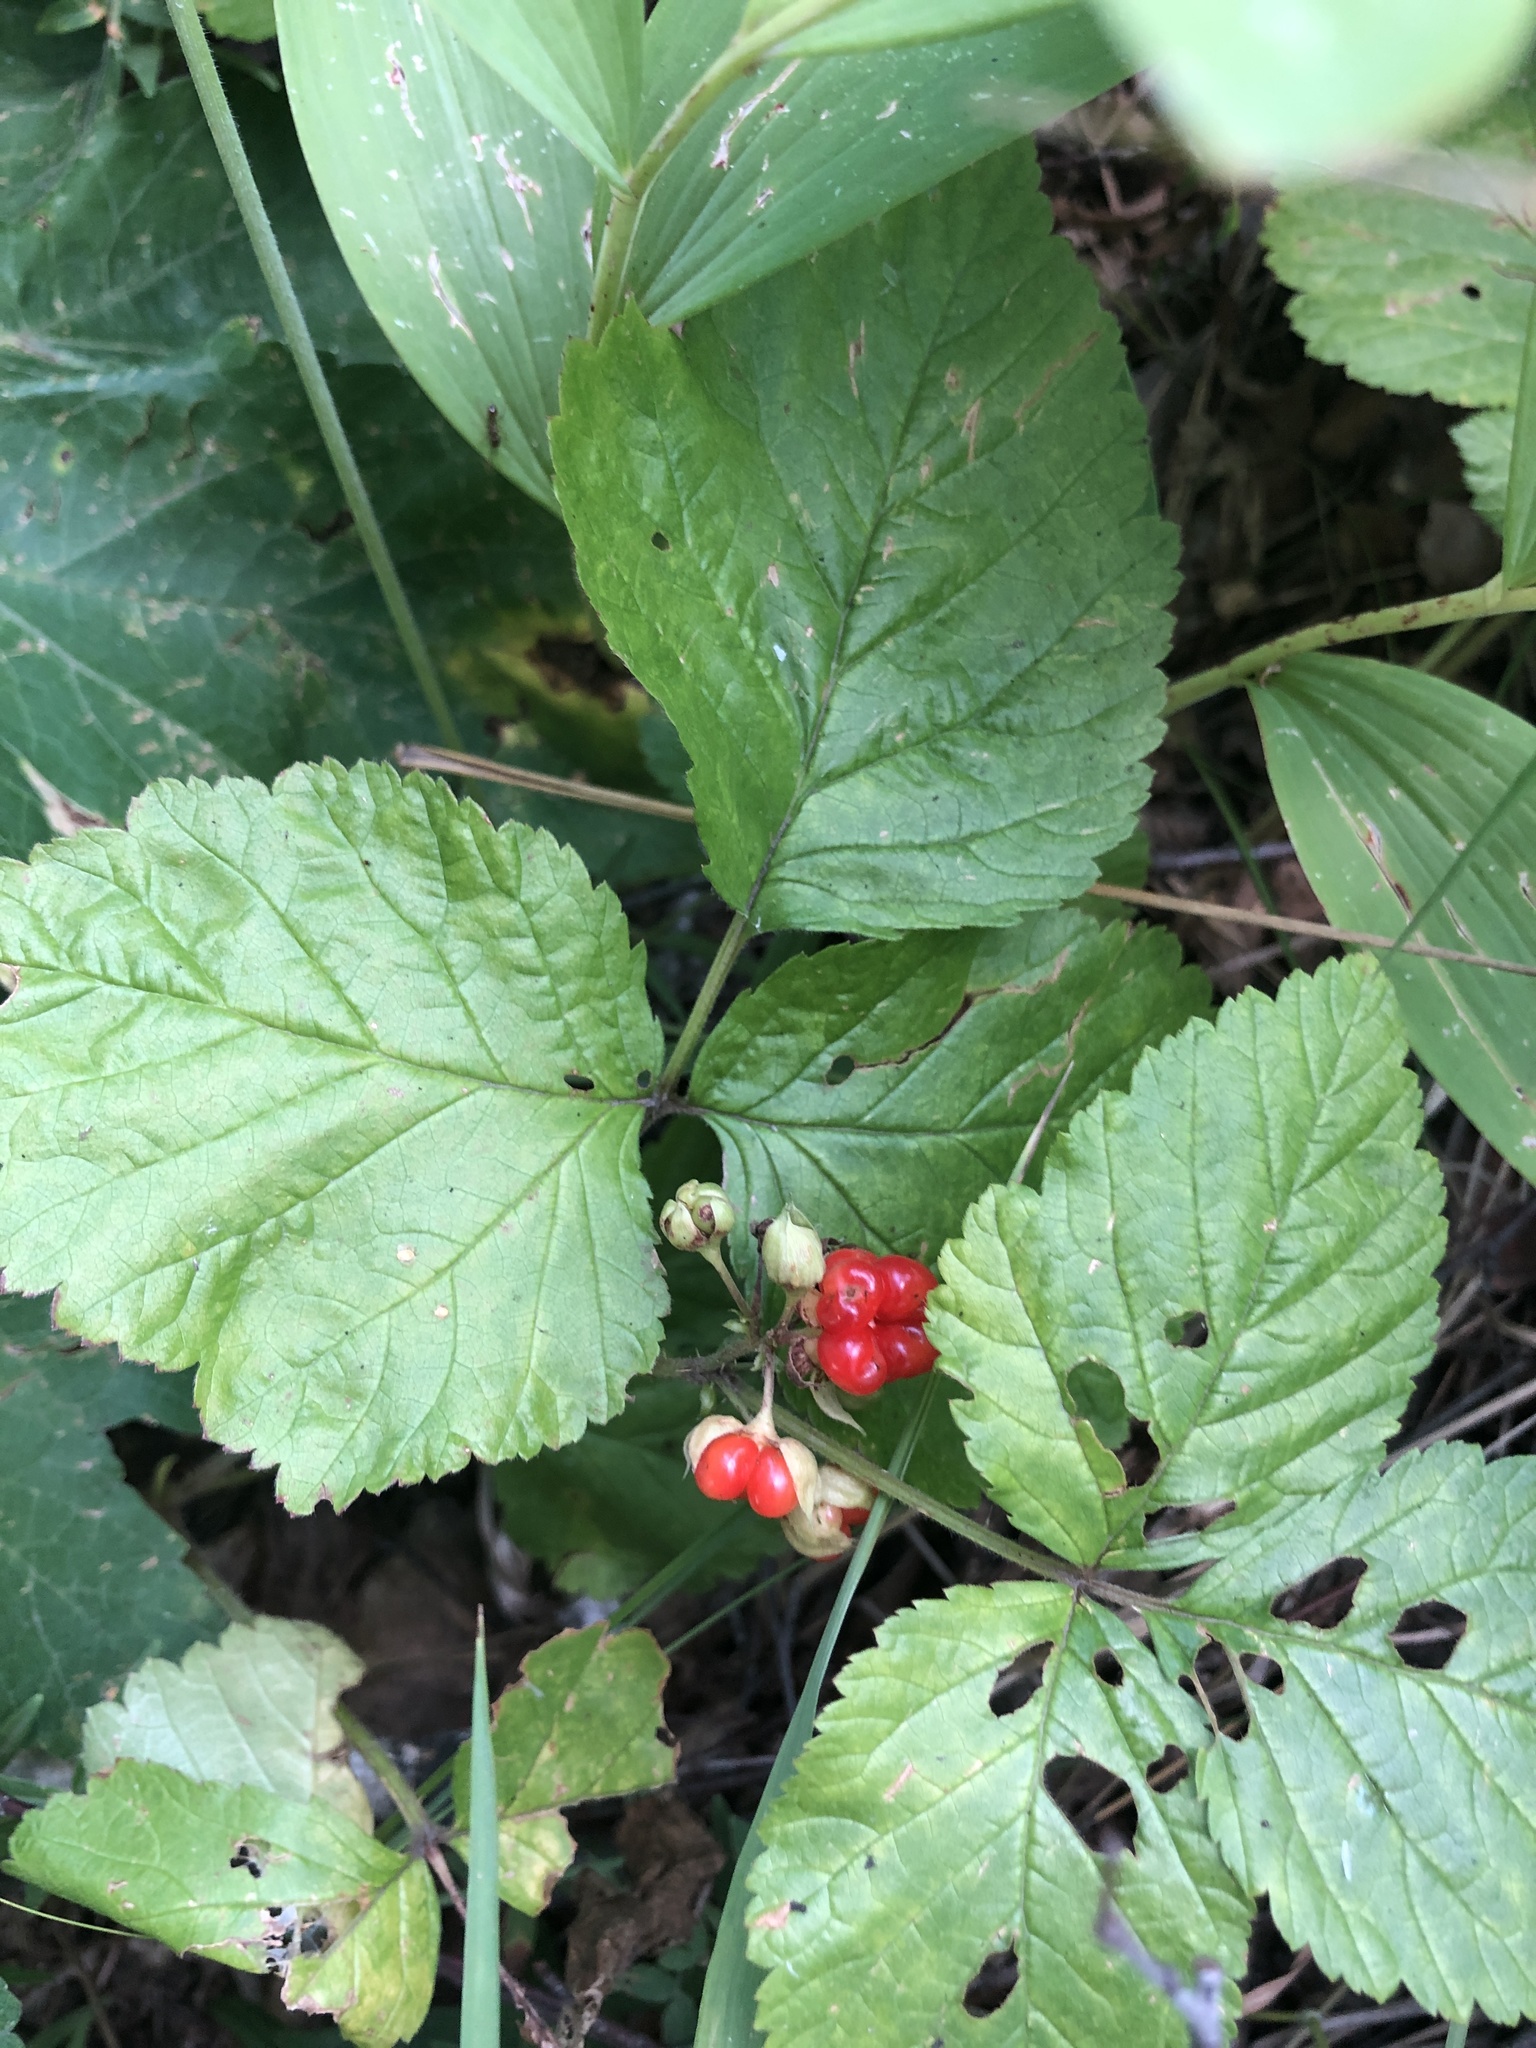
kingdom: Plantae
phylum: Tracheophyta
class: Magnoliopsida
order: Rosales
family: Rosaceae
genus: Rubus
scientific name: Rubus saxatilis
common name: Stone bramble
